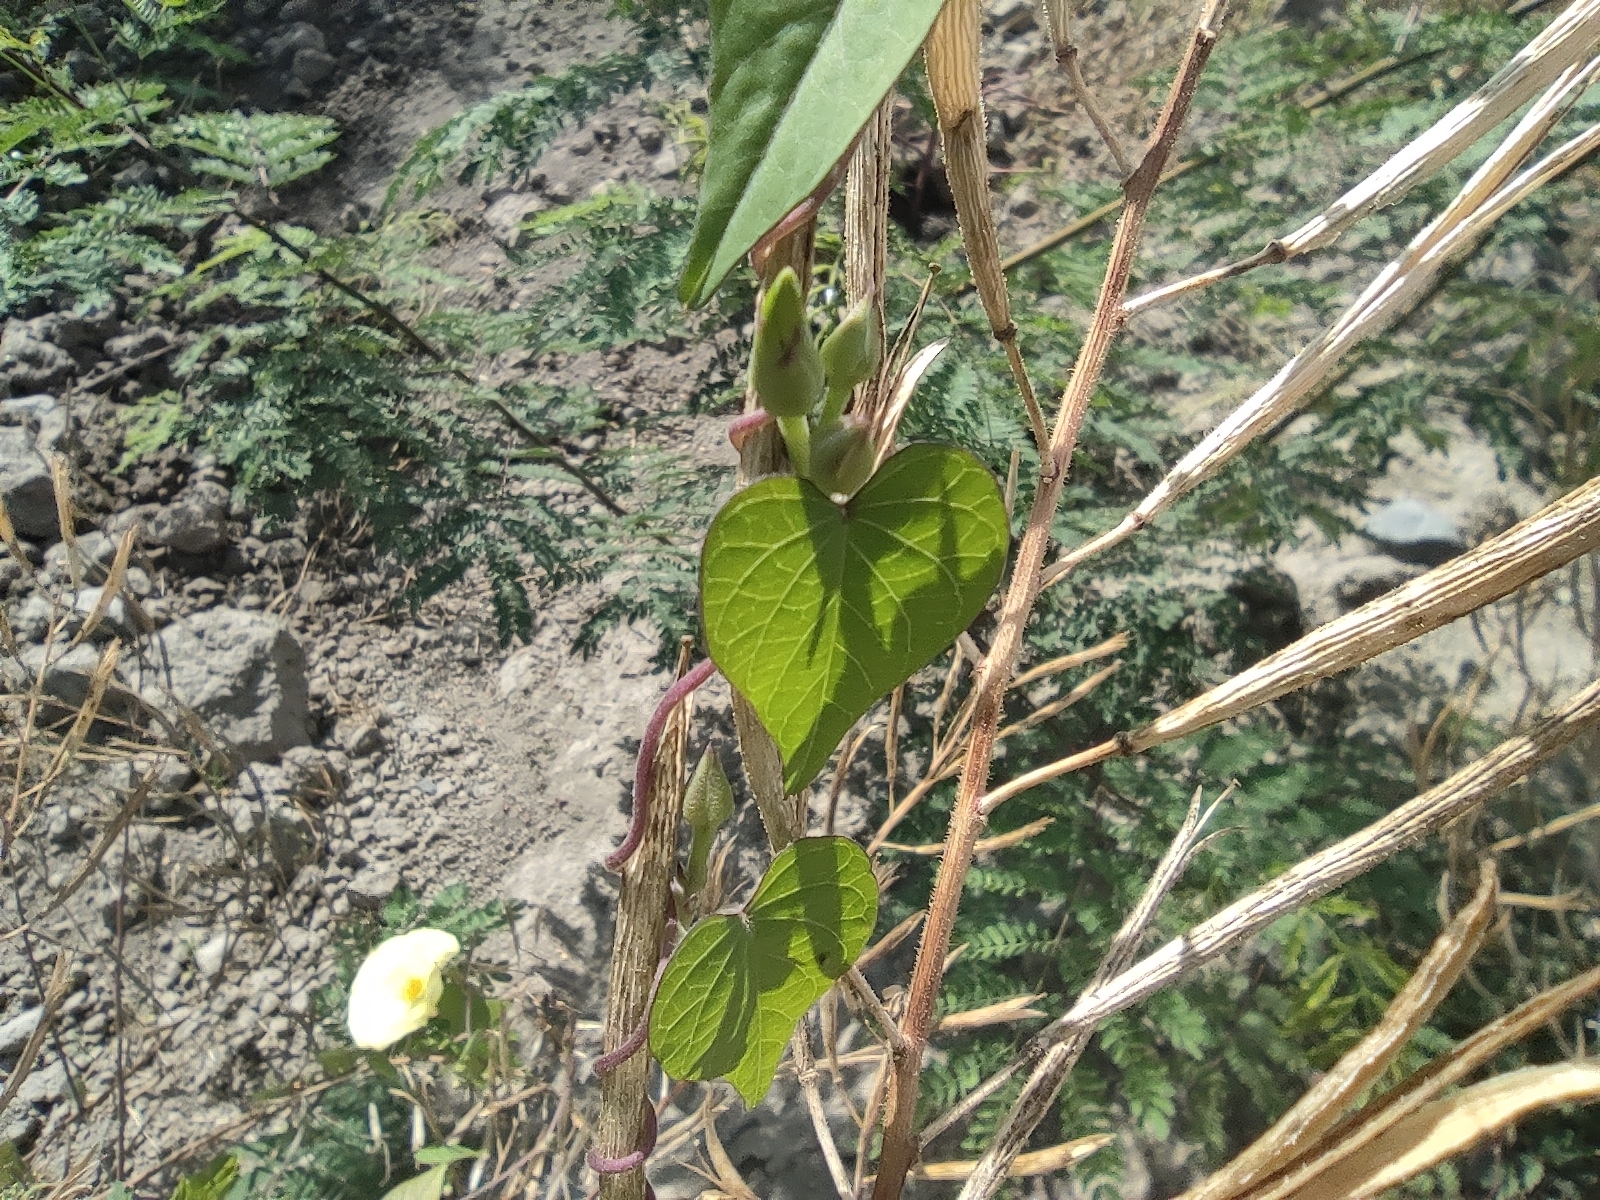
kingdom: Plantae
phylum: Tracheophyta
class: Magnoliopsida
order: Solanales
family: Convolvulaceae
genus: Ipomoea
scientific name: Ipomoea ochracea
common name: Fence morning-glory
